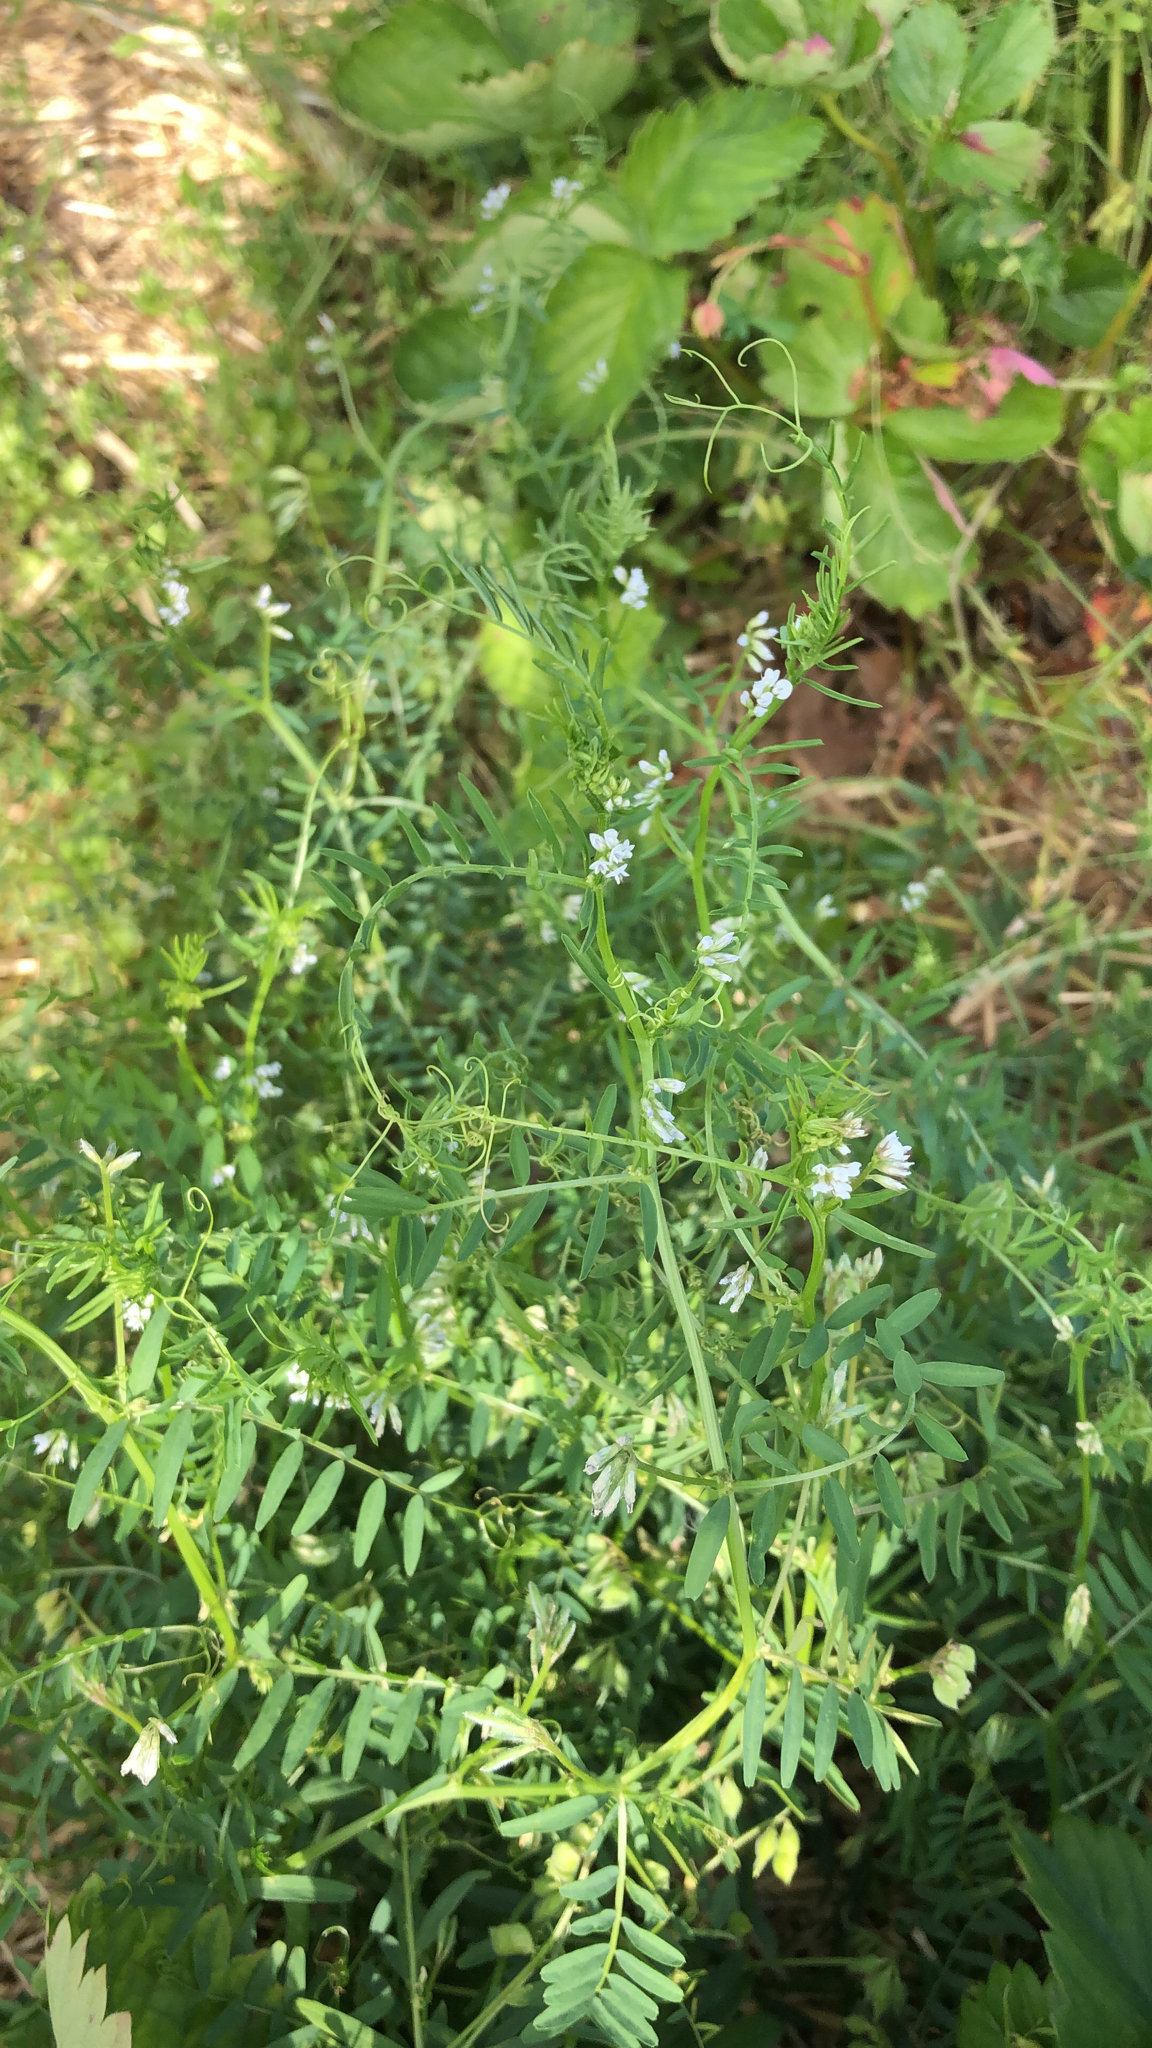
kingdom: Plantae
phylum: Tracheophyta
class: Magnoliopsida
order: Fabales
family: Fabaceae
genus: Vicia
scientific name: Vicia hirsuta
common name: Tiny vetch
